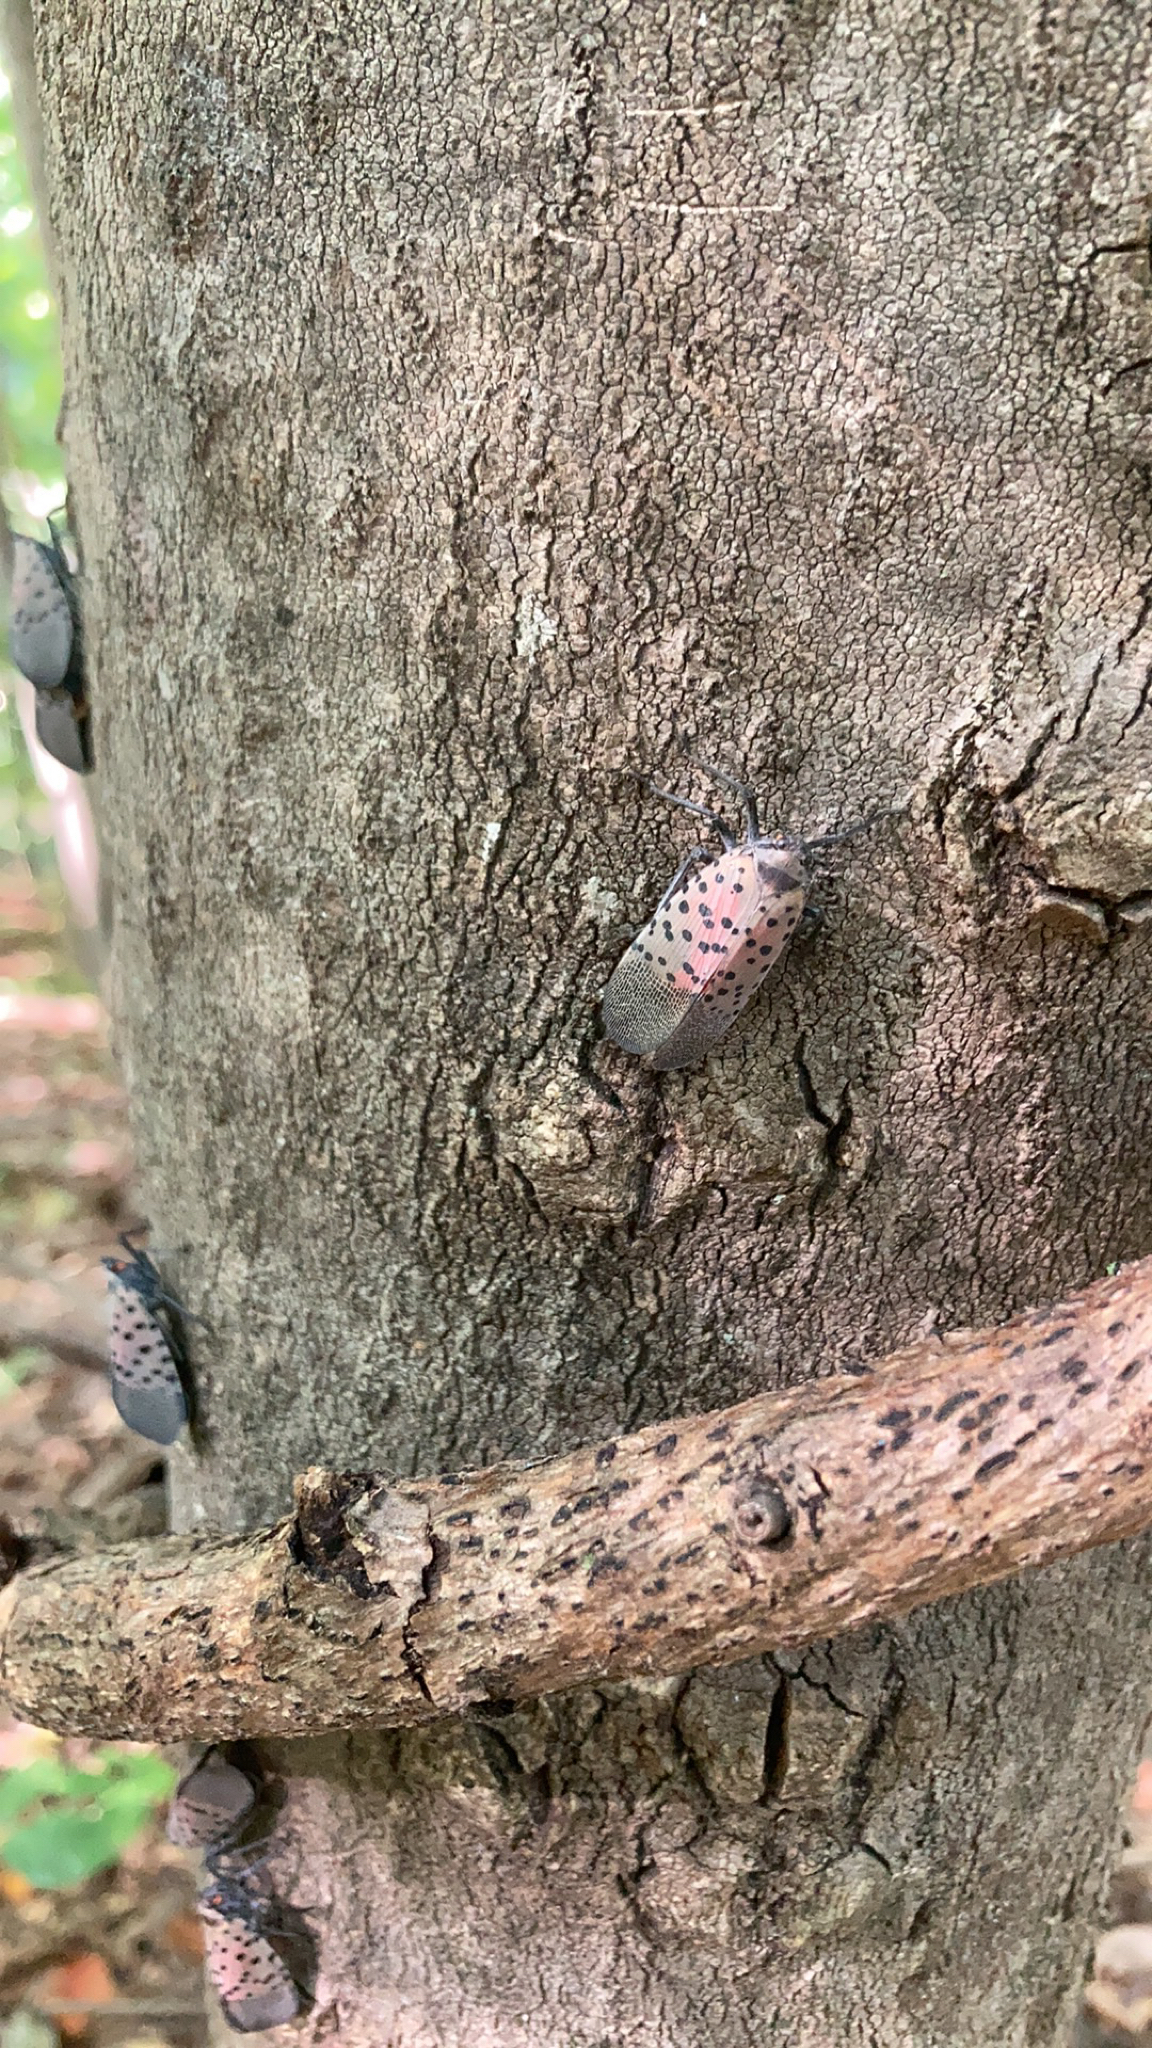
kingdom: Animalia
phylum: Arthropoda
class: Insecta
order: Hemiptera
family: Fulgoridae
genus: Lycorma
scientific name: Lycorma delicatula
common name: Spotted lanternfly
